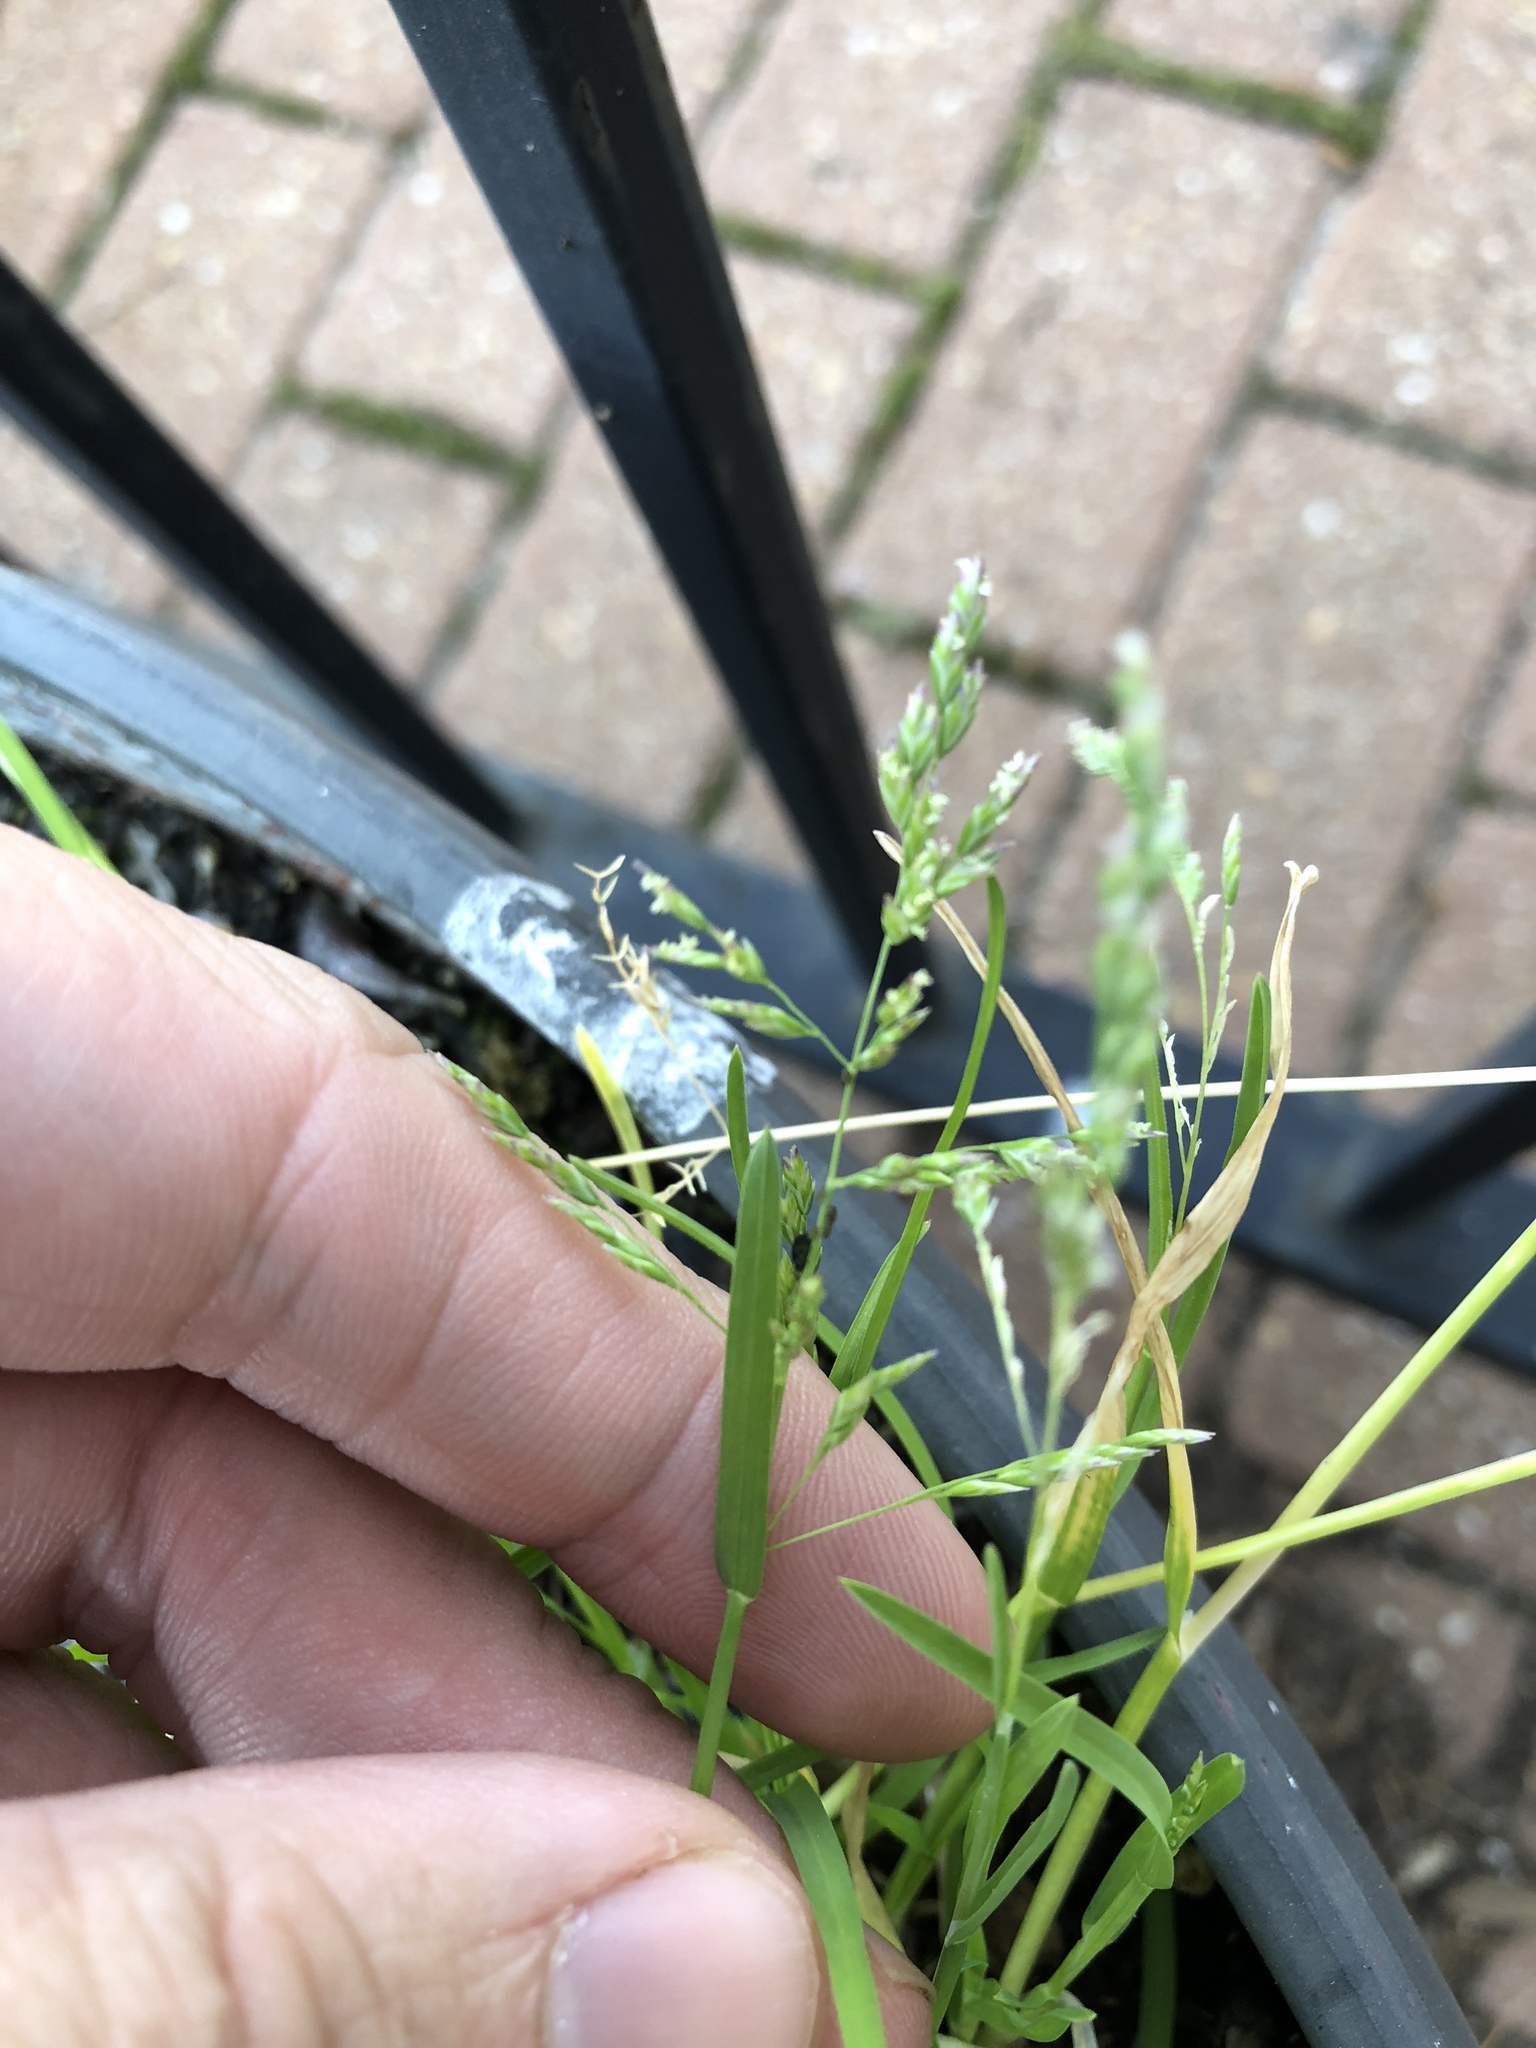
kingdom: Plantae
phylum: Tracheophyta
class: Liliopsida
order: Poales
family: Poaceae
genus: Poa
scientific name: Poa annua
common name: Annual bluegrass
